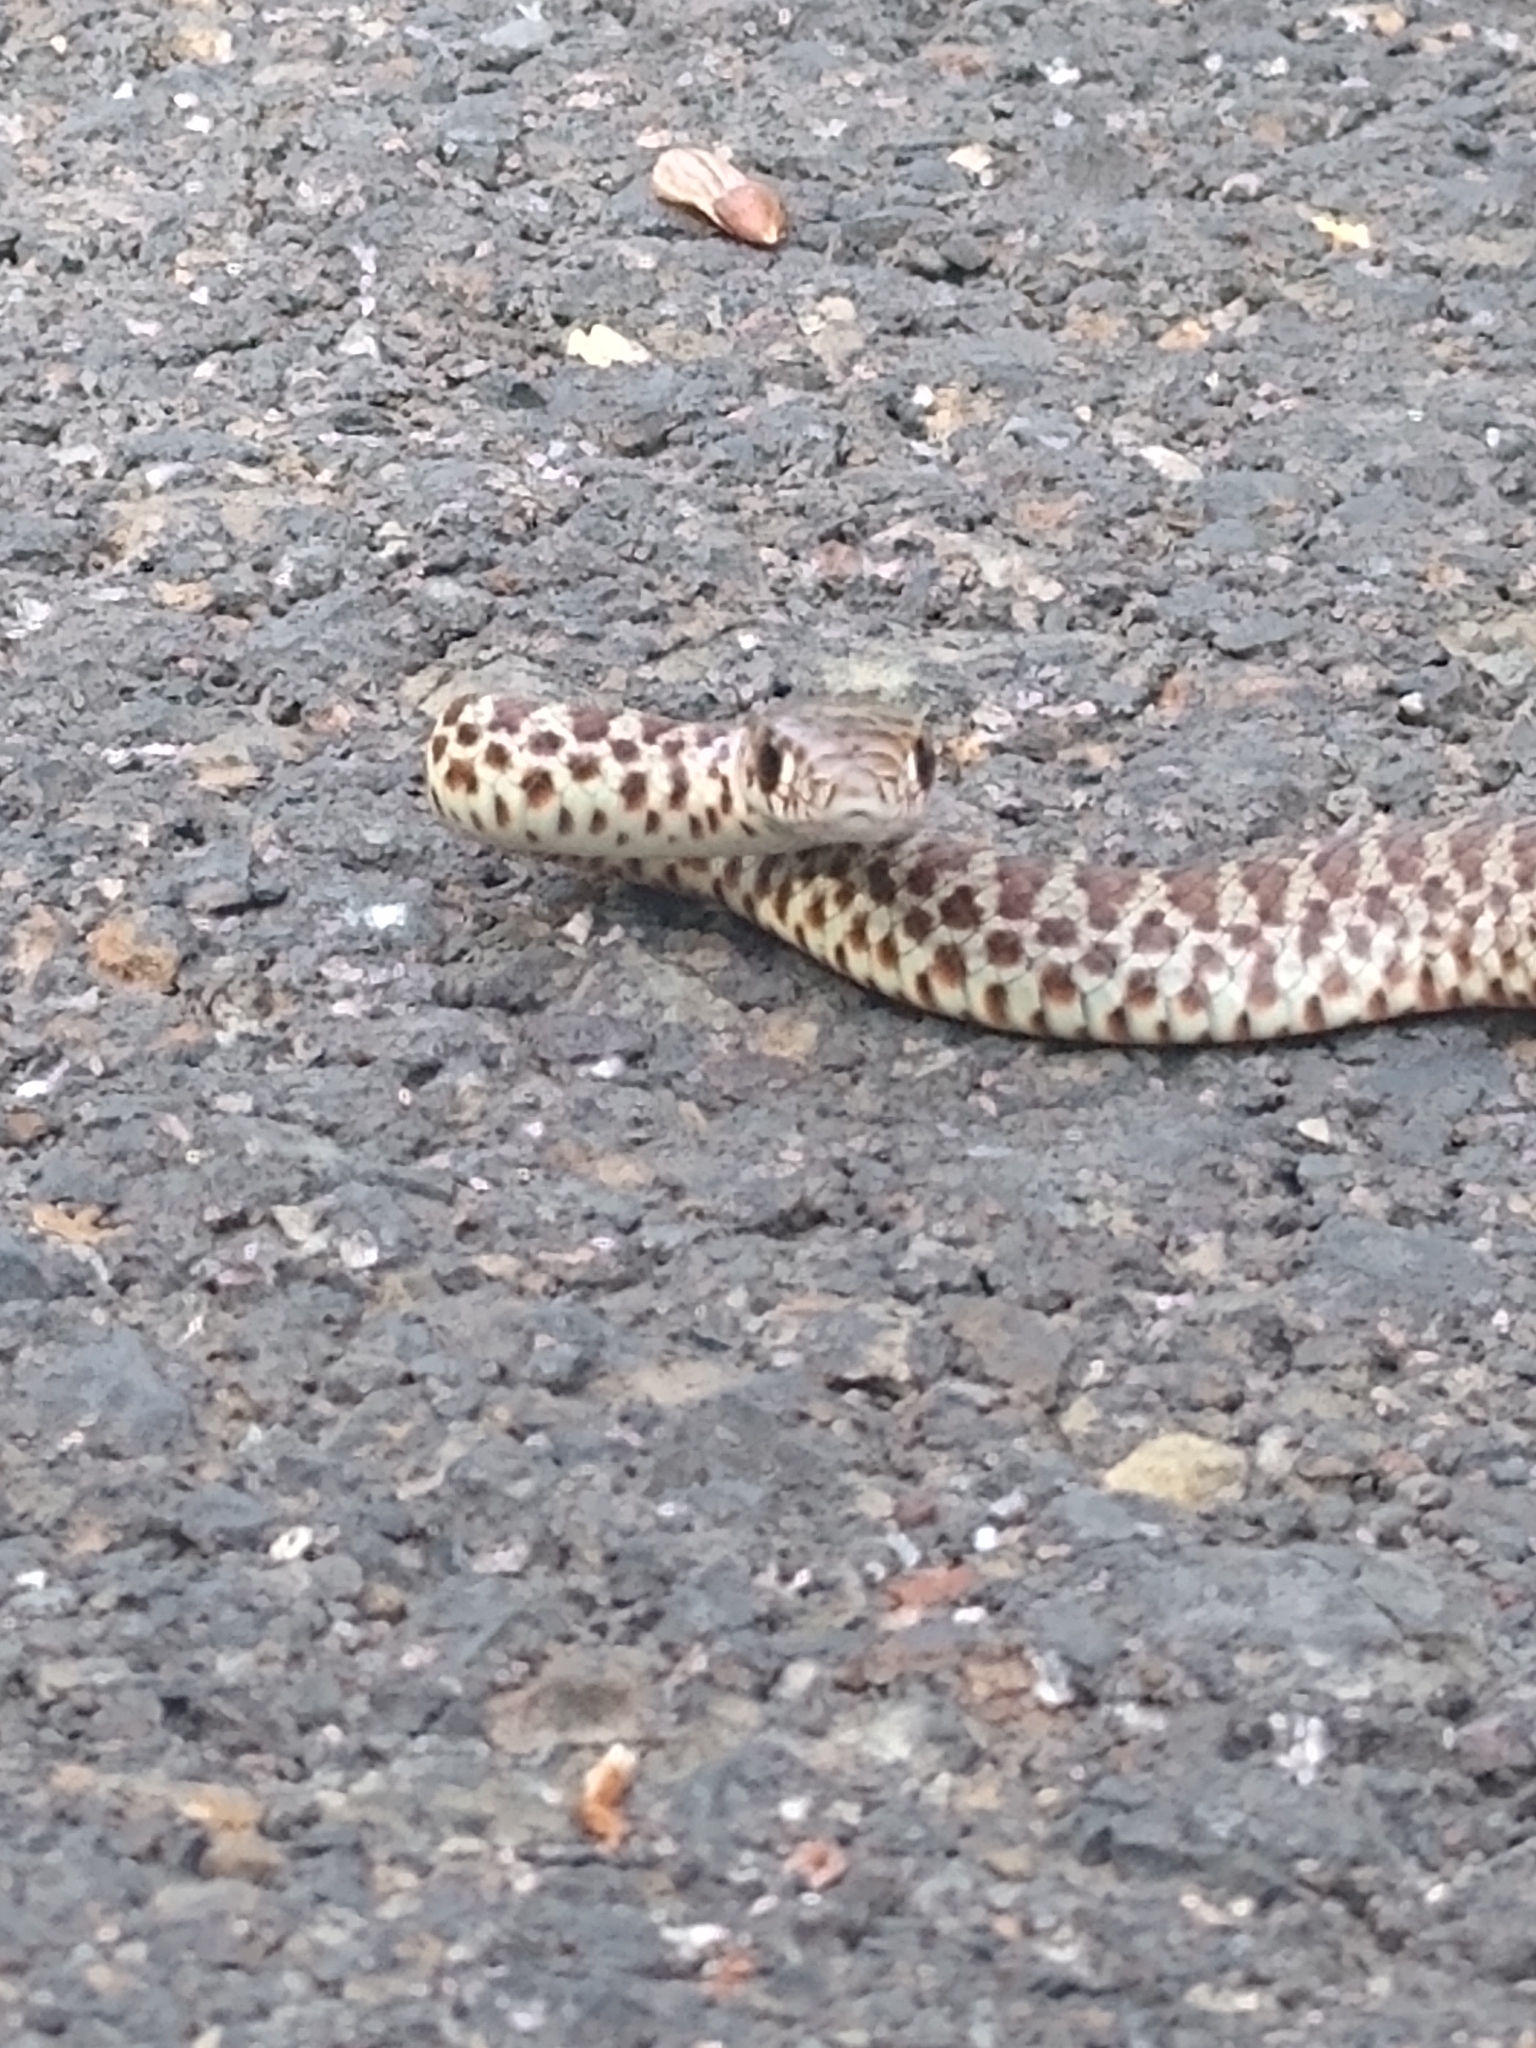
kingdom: Animalia
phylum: Chordata
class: Squamata
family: Colubridae
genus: Coluber
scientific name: Coluber constrictor
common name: Eastern racer
